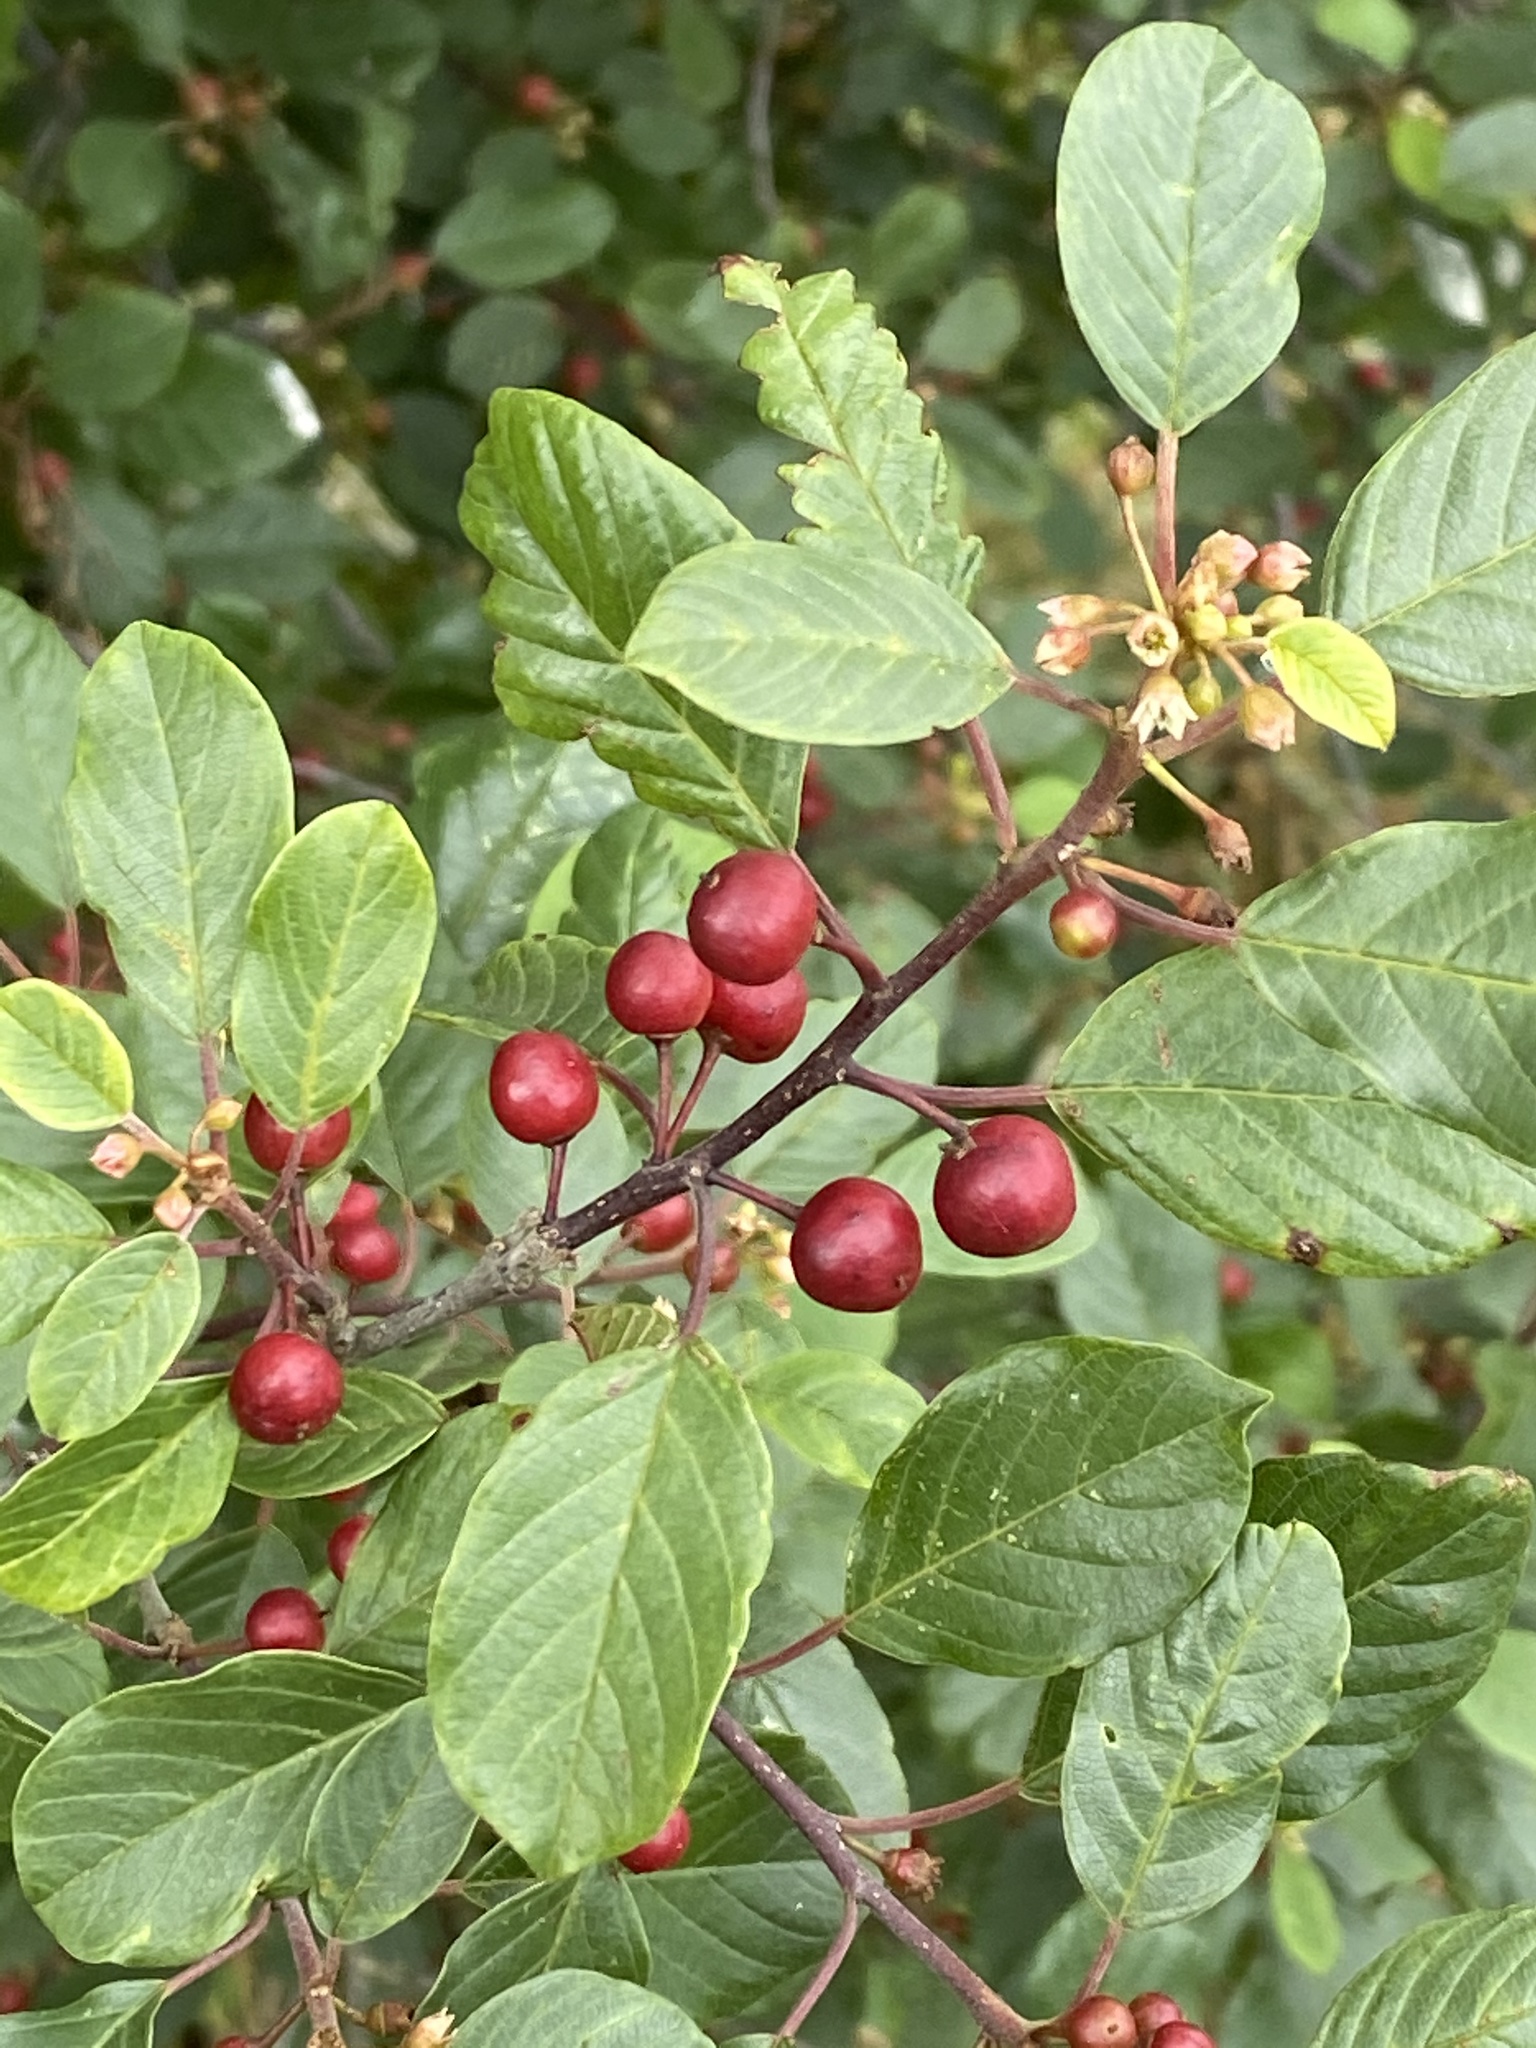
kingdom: Plantae
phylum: Tracheophyta
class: Magnoliopsida
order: Rosales
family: Rhamnaceae
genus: Frangula
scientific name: Frangula alnus
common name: Alder buckthorn
